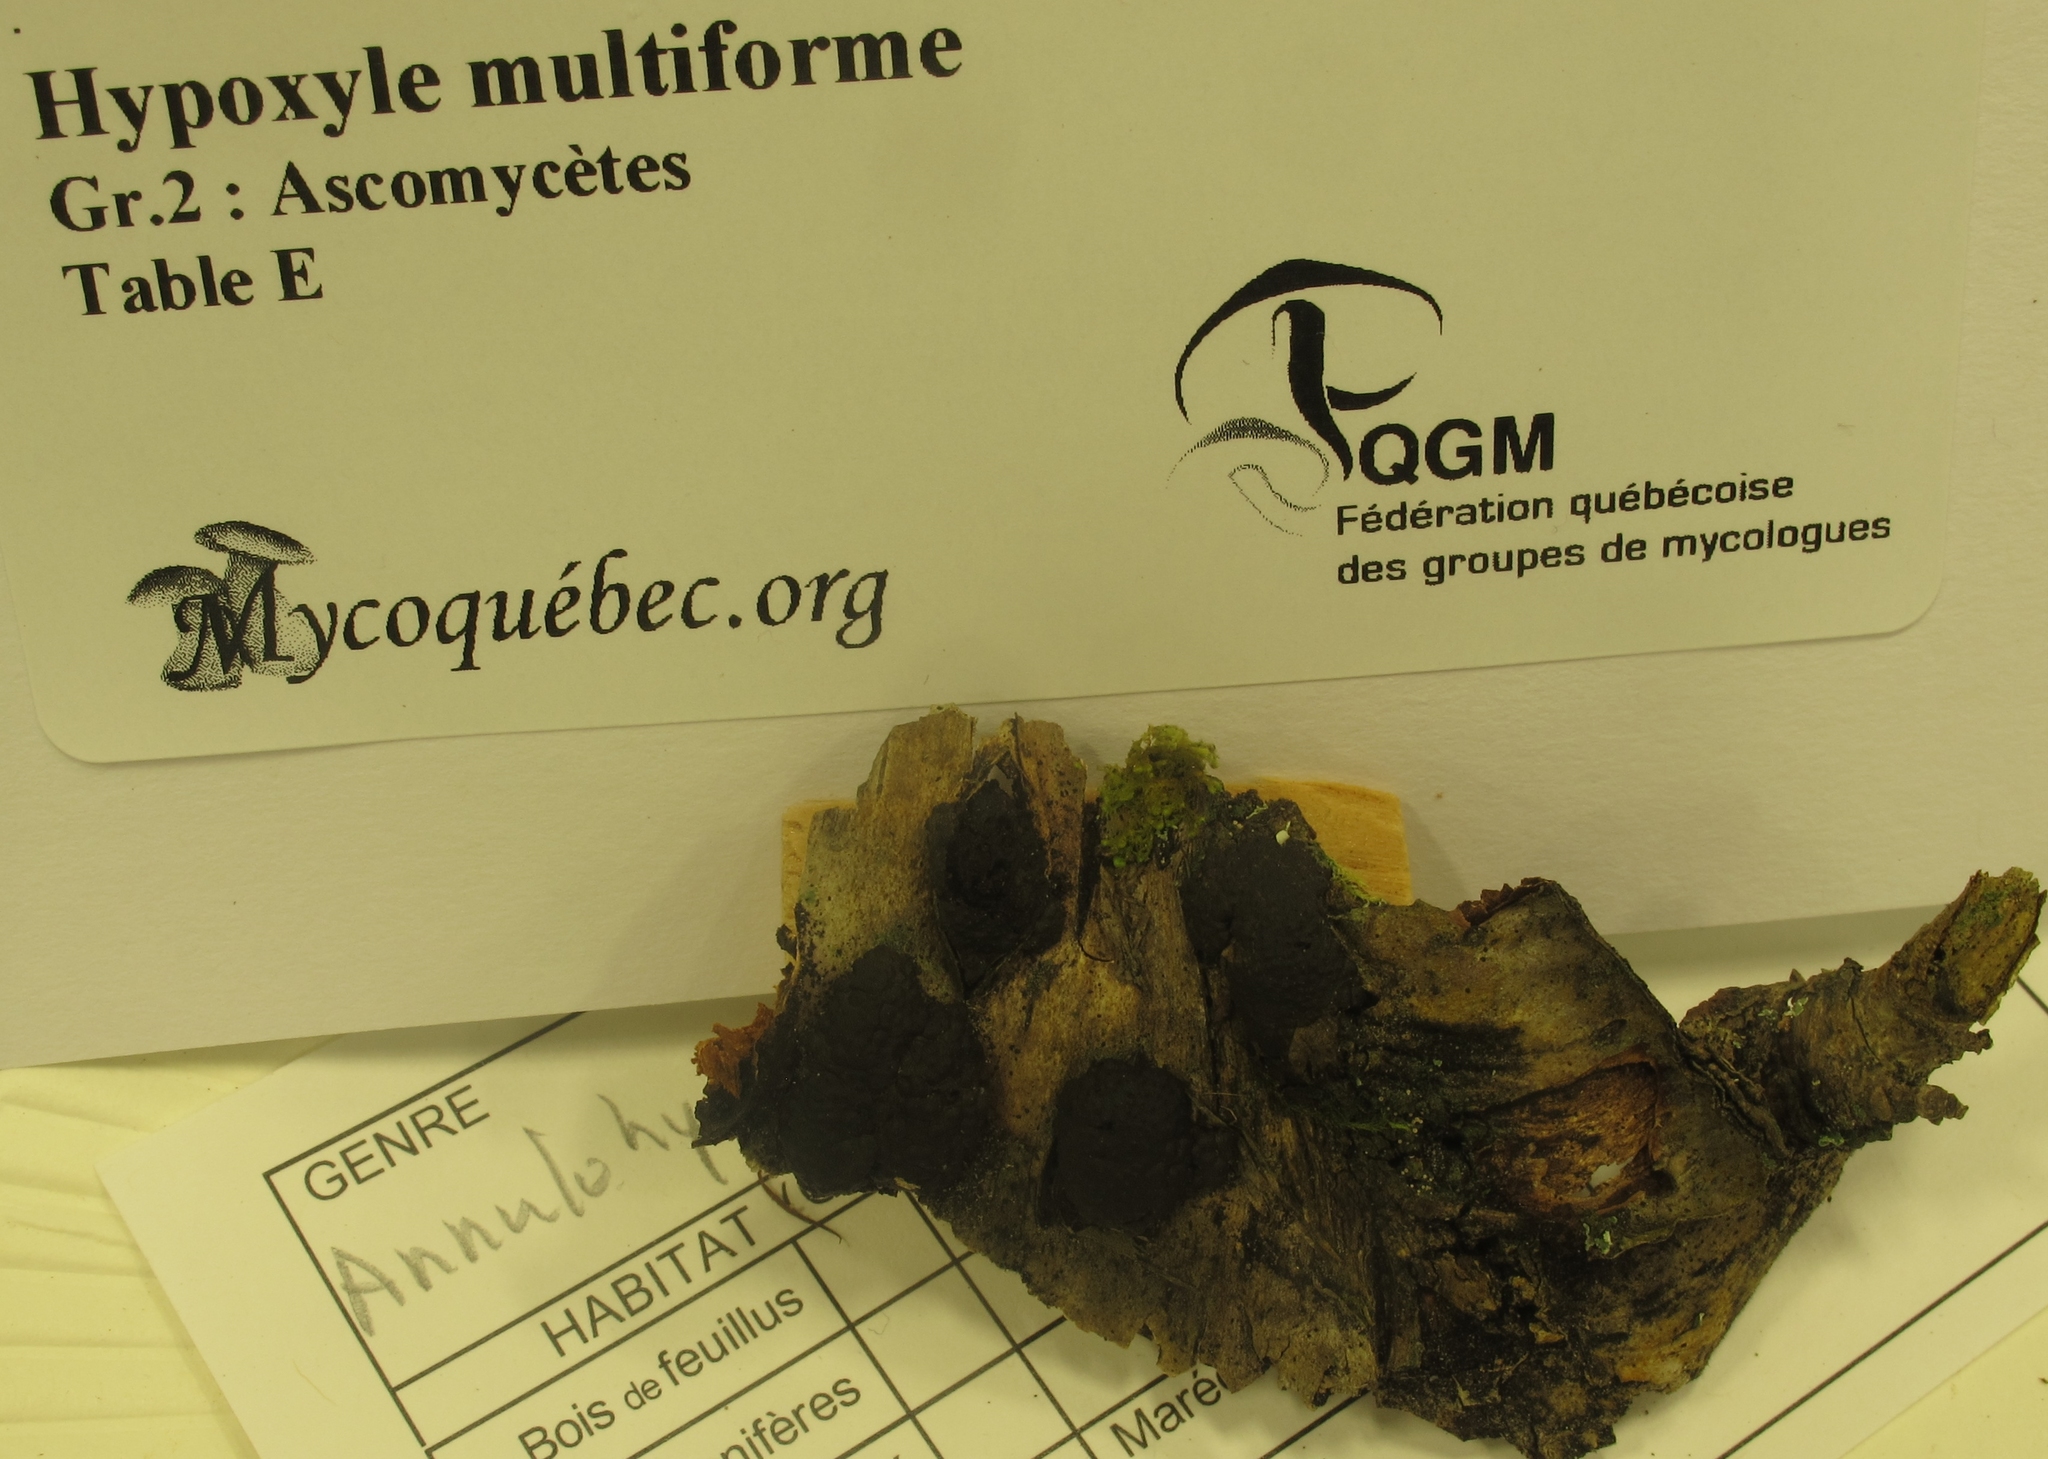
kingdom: Fungi
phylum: Ascomycota
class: Sordariomycetes
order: Xylariales
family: Hypoxylaceae
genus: Jackrogersella
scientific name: Jackrogersella multiformis
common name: Birch woodwart
